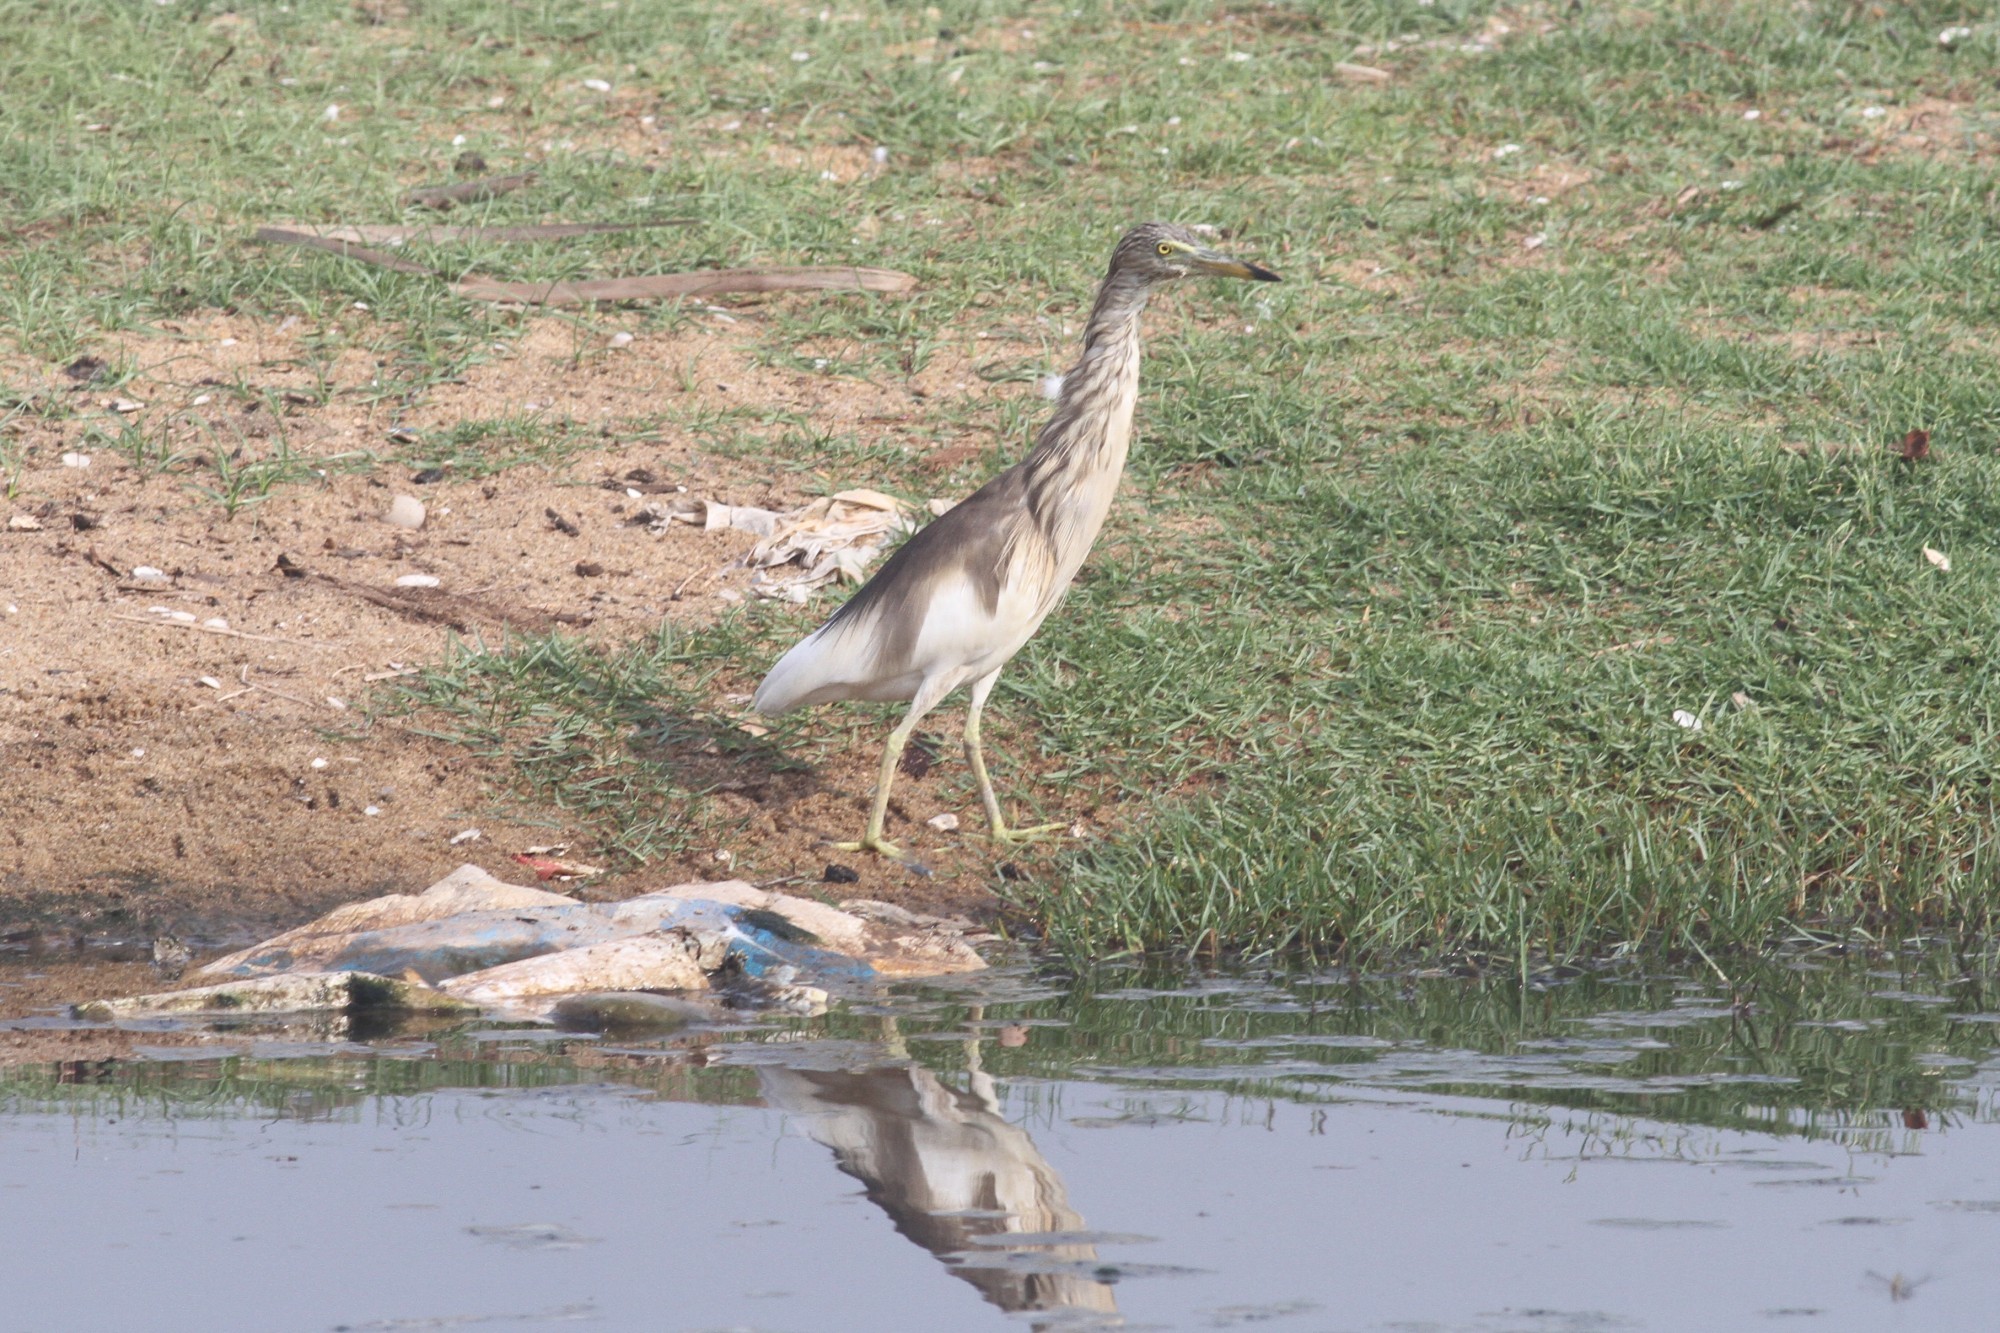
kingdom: Animalia
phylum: Chordata
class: Aves
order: Pelecaniformes
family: Ardeidae
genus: Ardeola
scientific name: Ardeola grayii
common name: Indian pond heron
